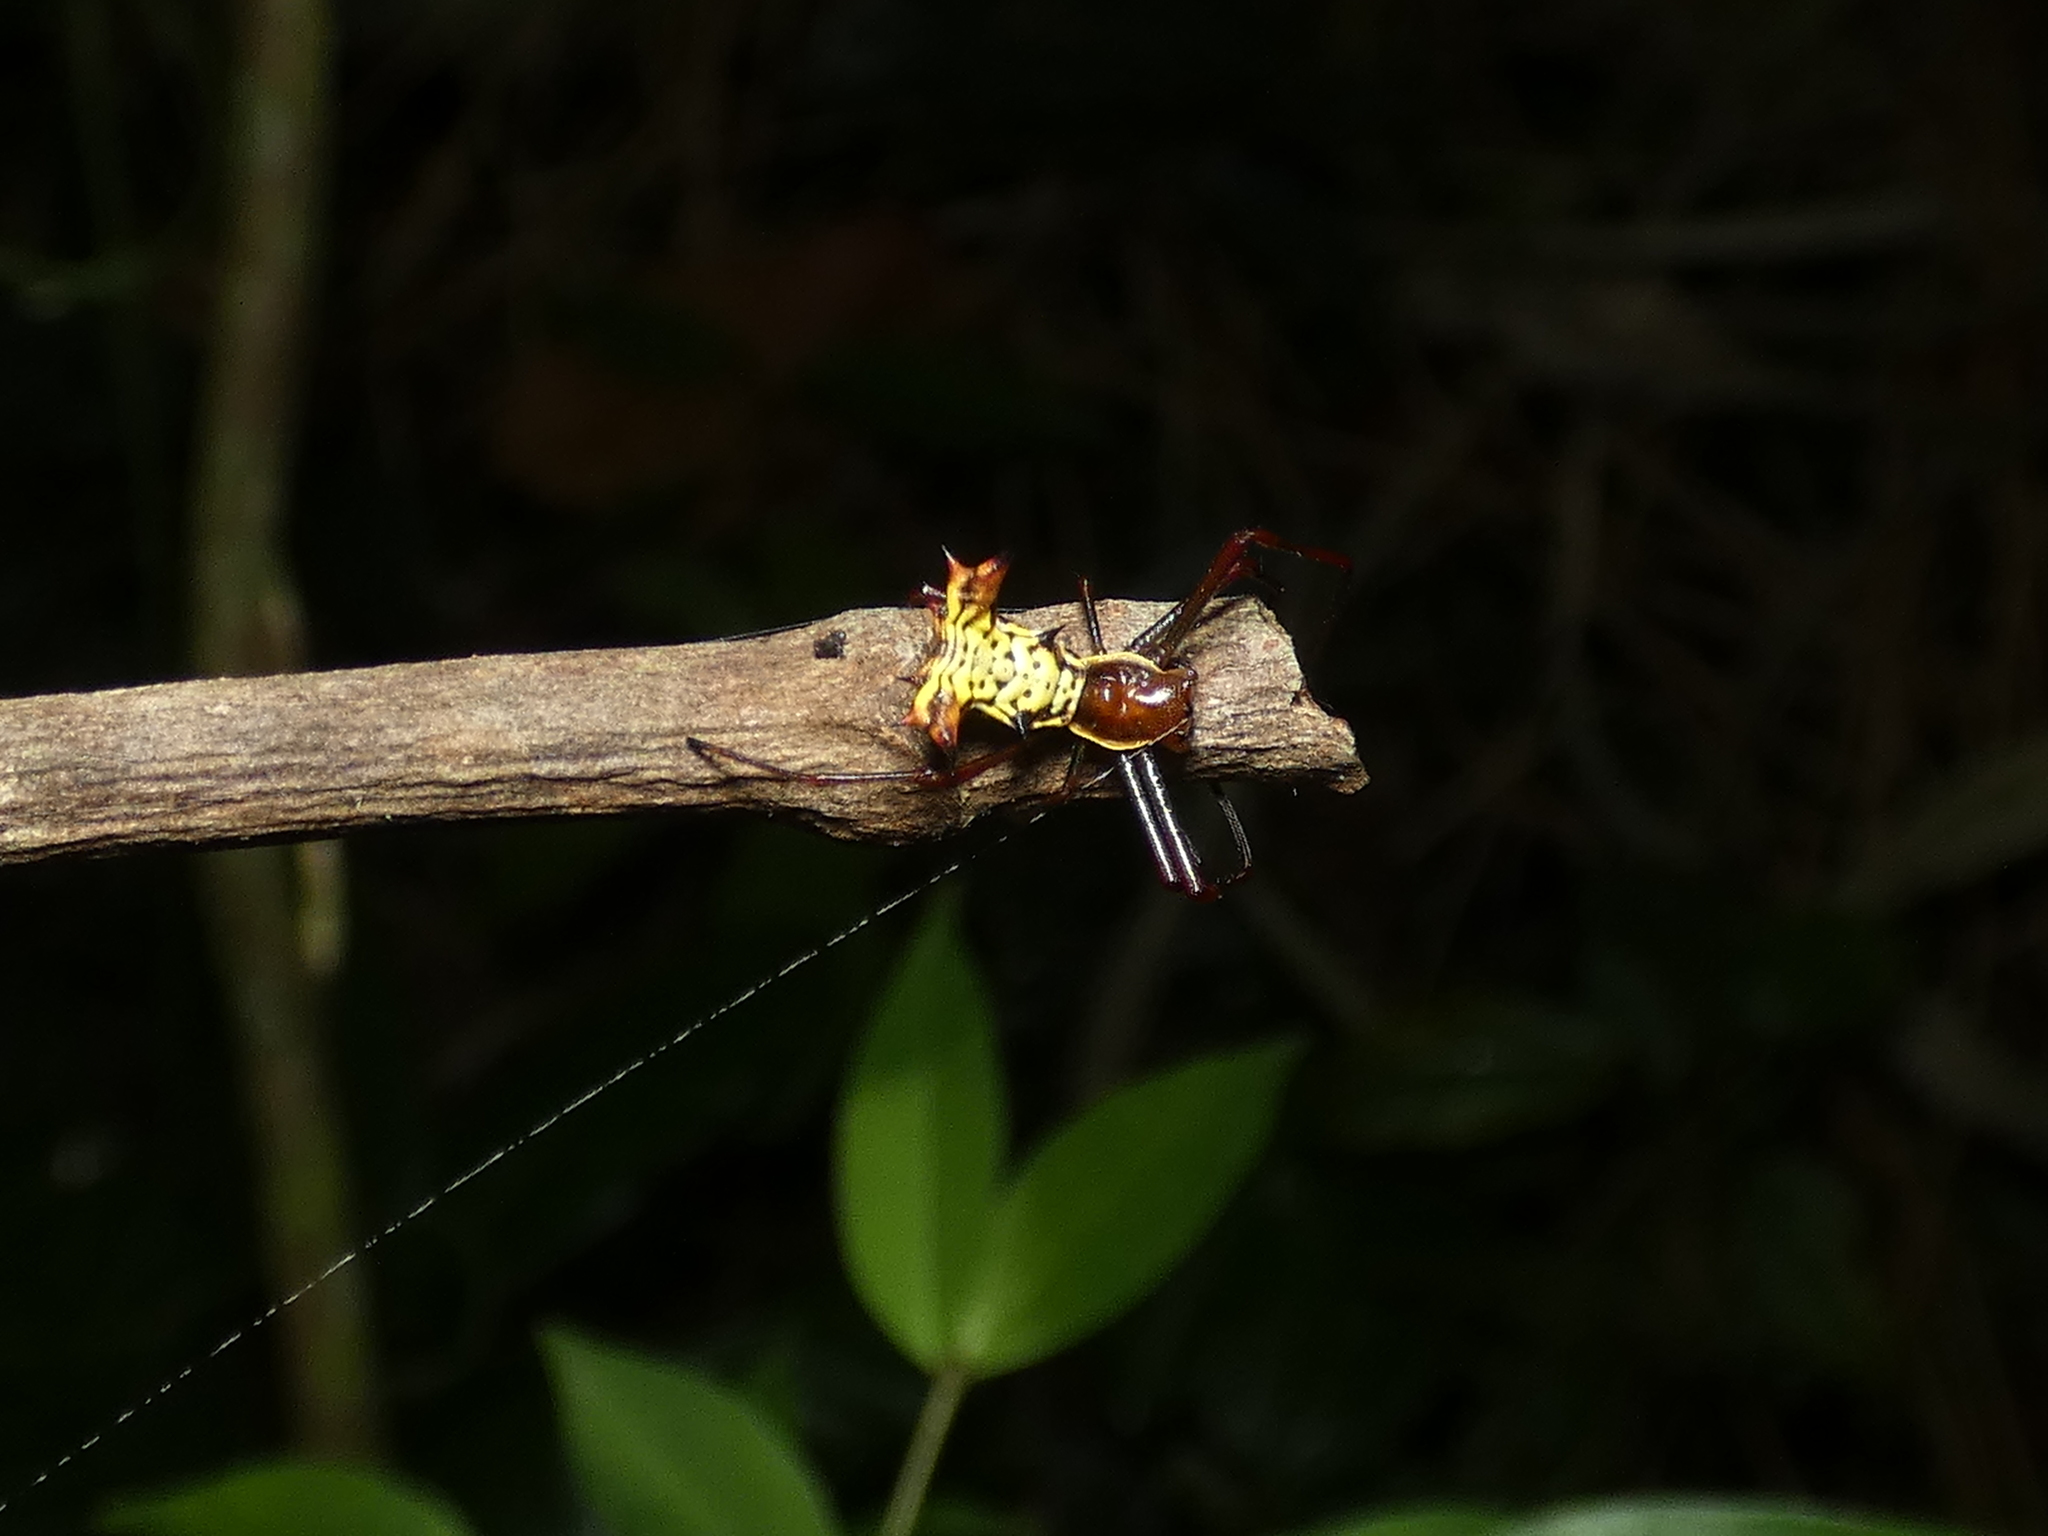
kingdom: Animalia
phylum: Arthropoda
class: Arachnida
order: Araneae
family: Araneidae
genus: Micrathena
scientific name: Micrathena fissispina
